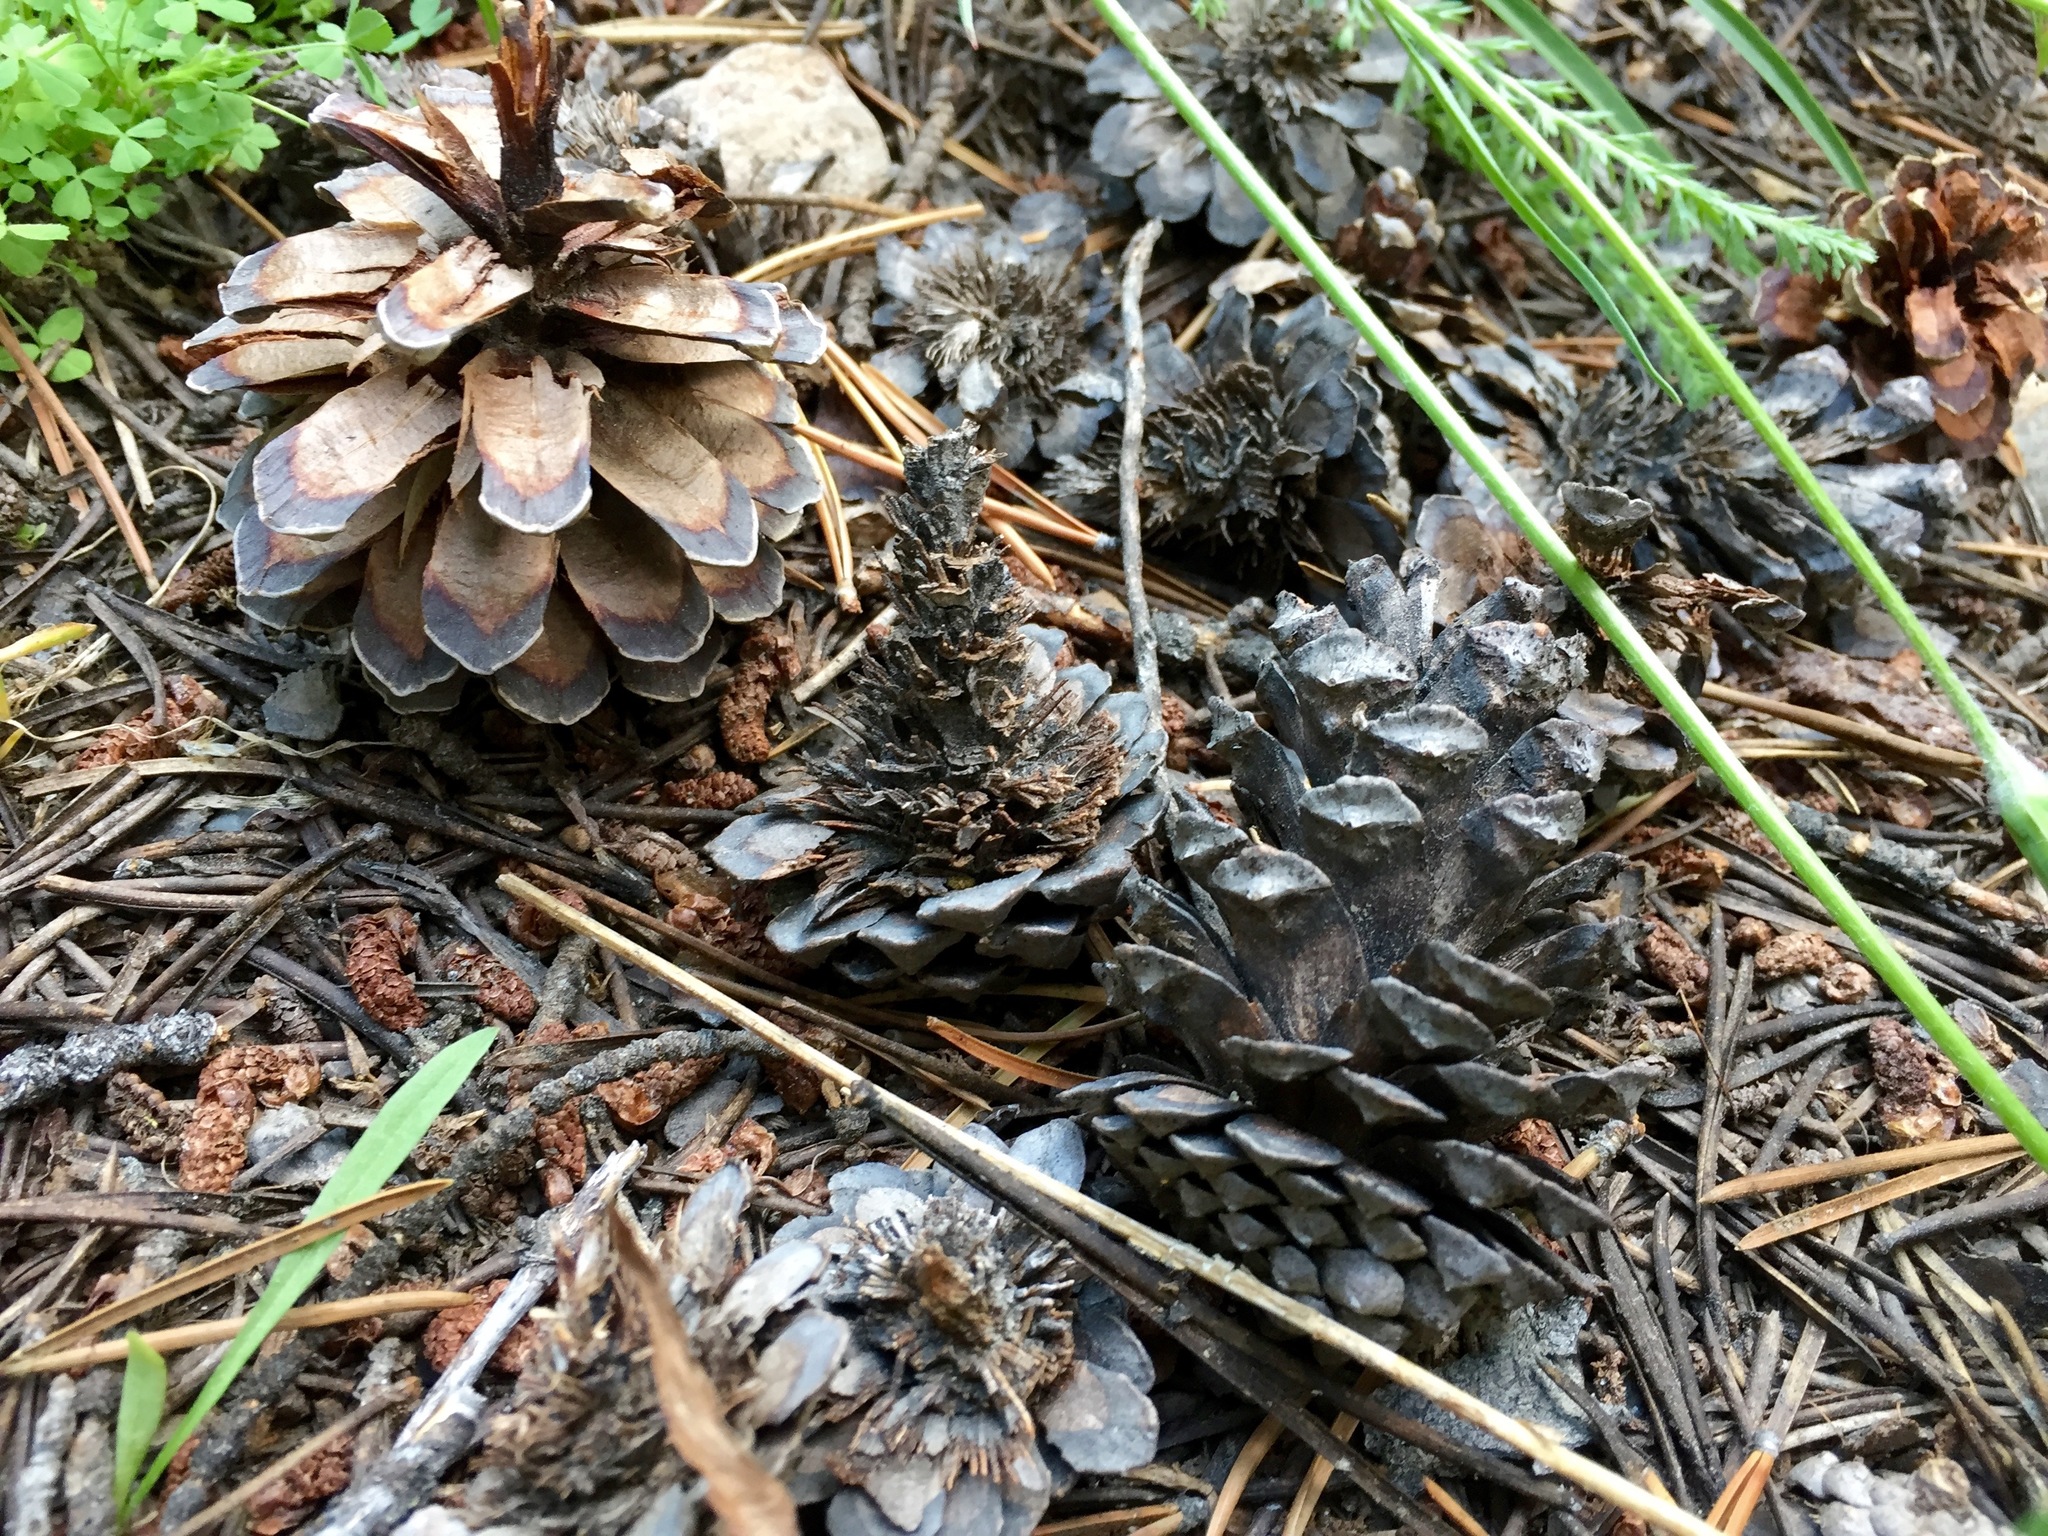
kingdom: Plantae
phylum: Tracheophyta
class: Pinopsida
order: Pinales
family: Pinaceae
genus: Pinus
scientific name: Pinus contorta
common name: Lodgepole pine
